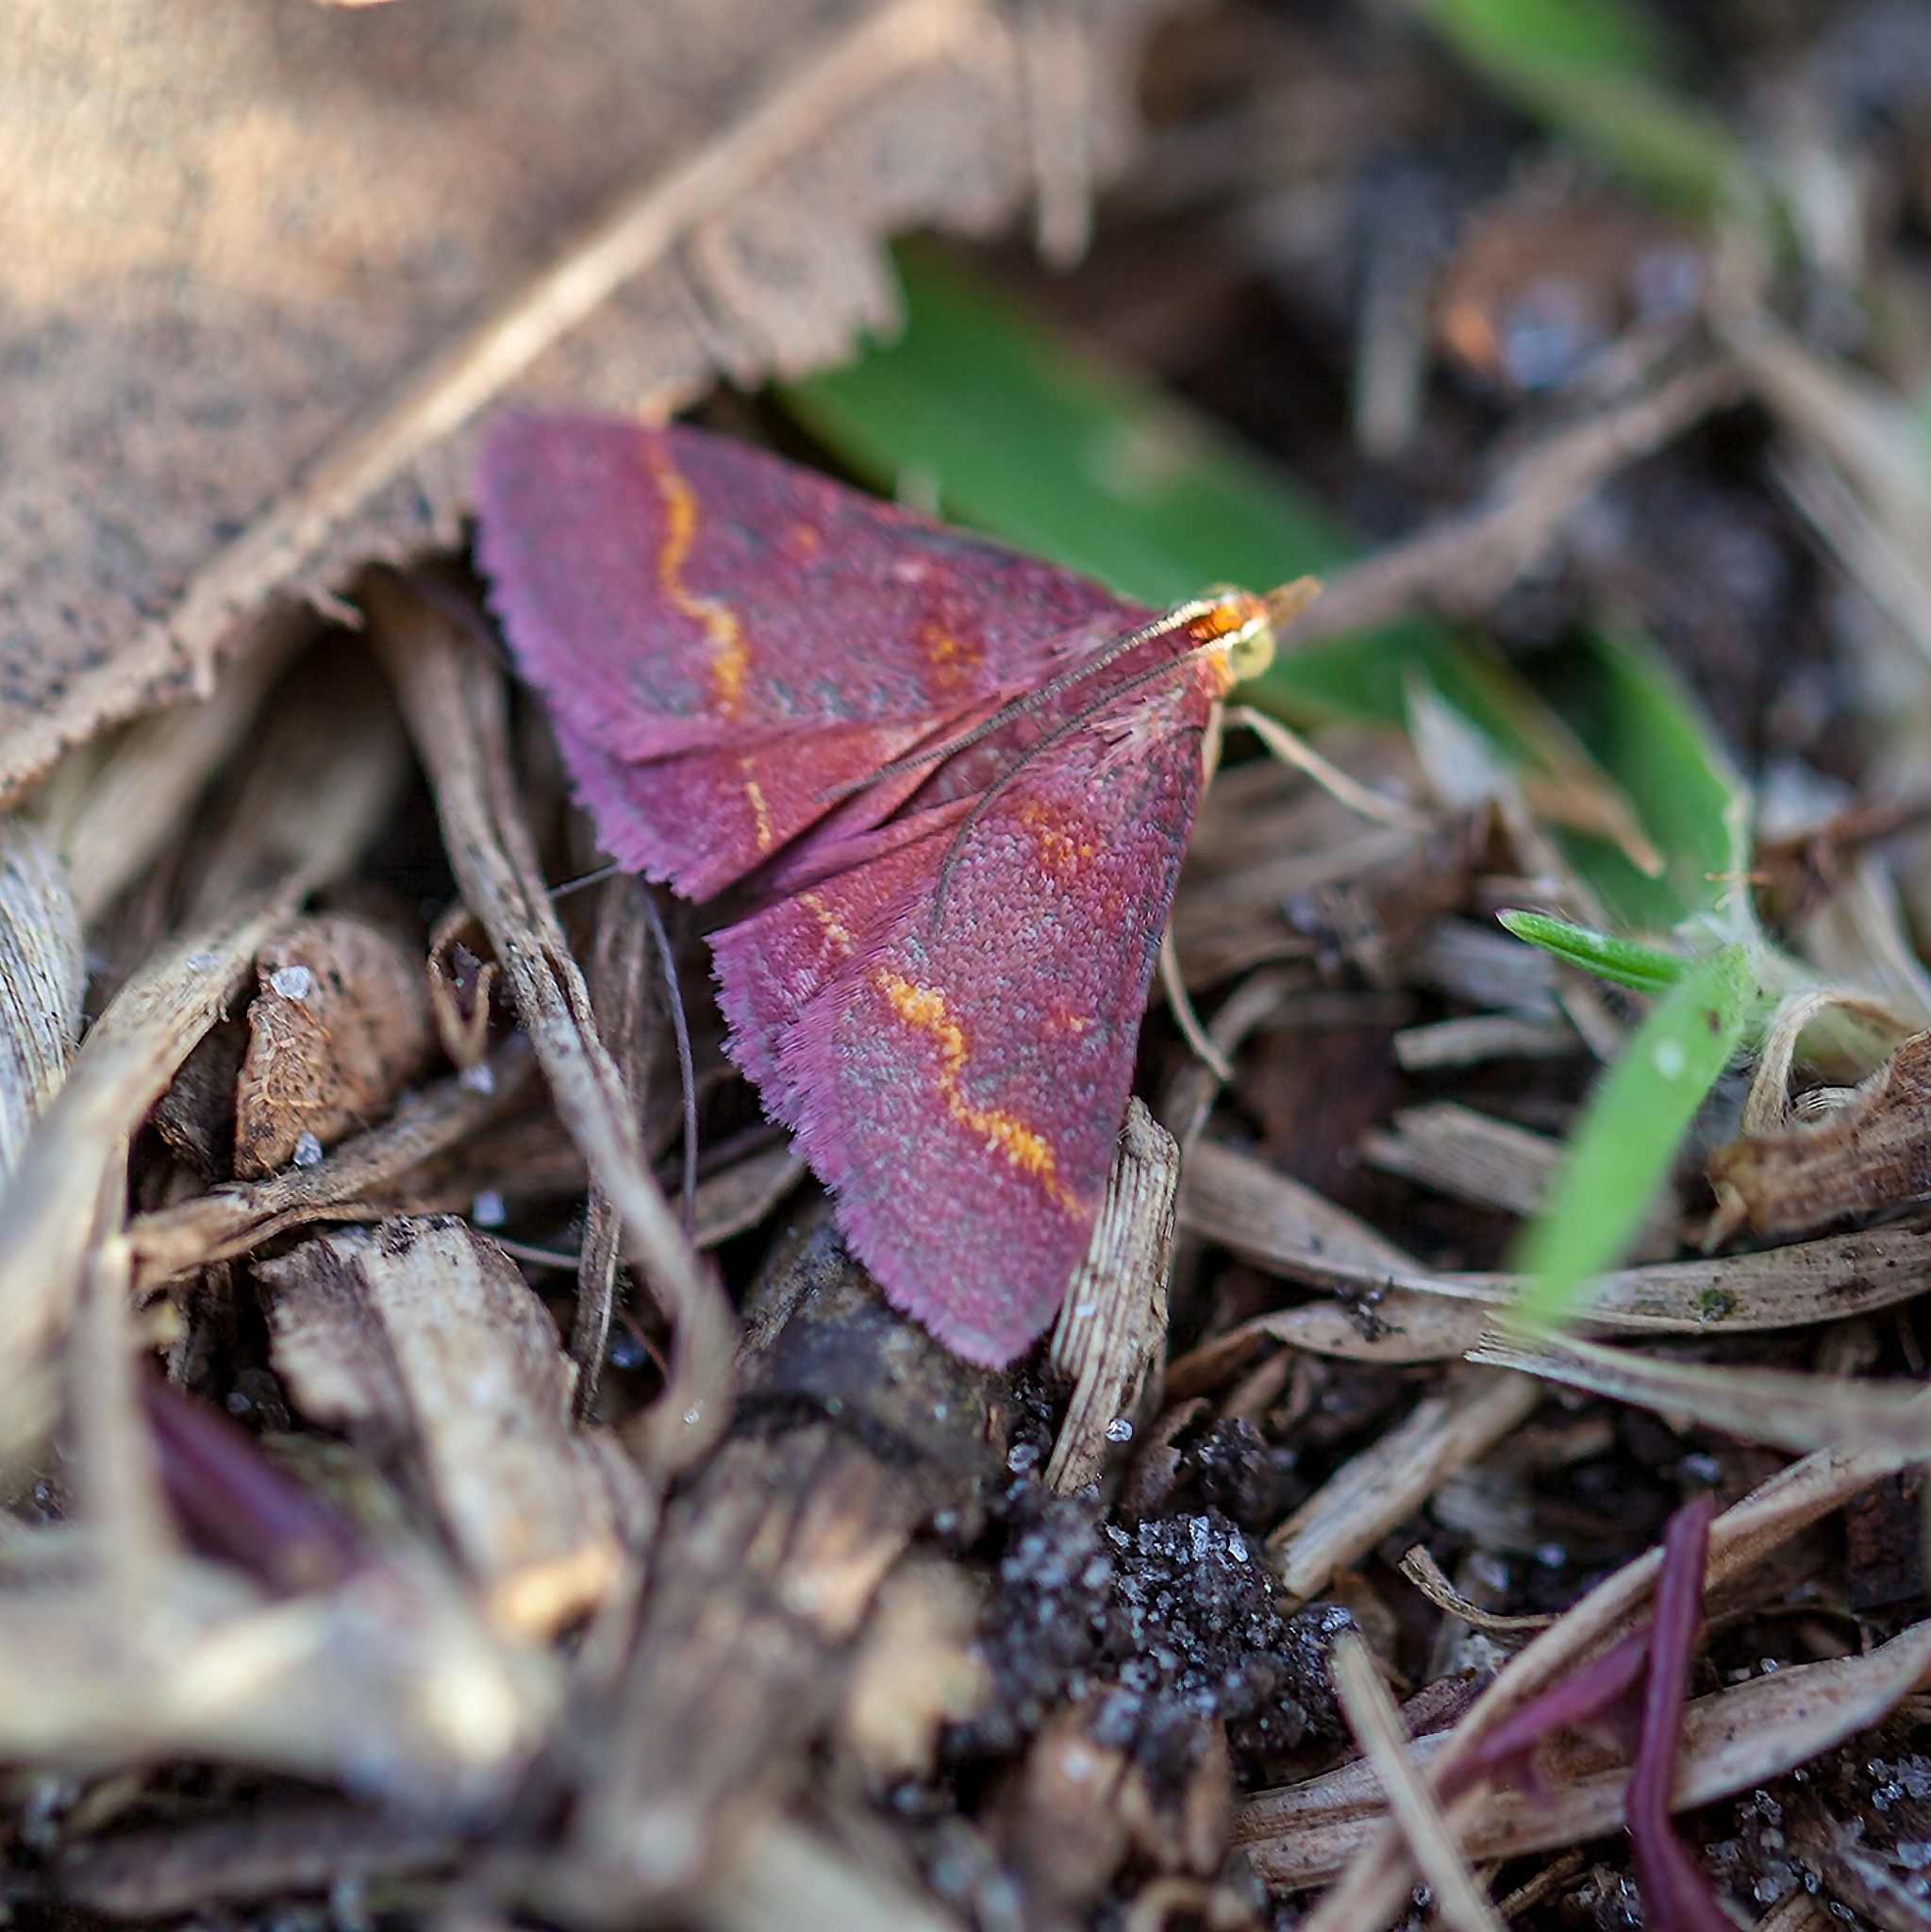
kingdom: Animalia
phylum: Arthropoda
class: Insecta
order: Lepidoptera
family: Crambidae
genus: Pyrausta
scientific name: Pyrausta tyralis
